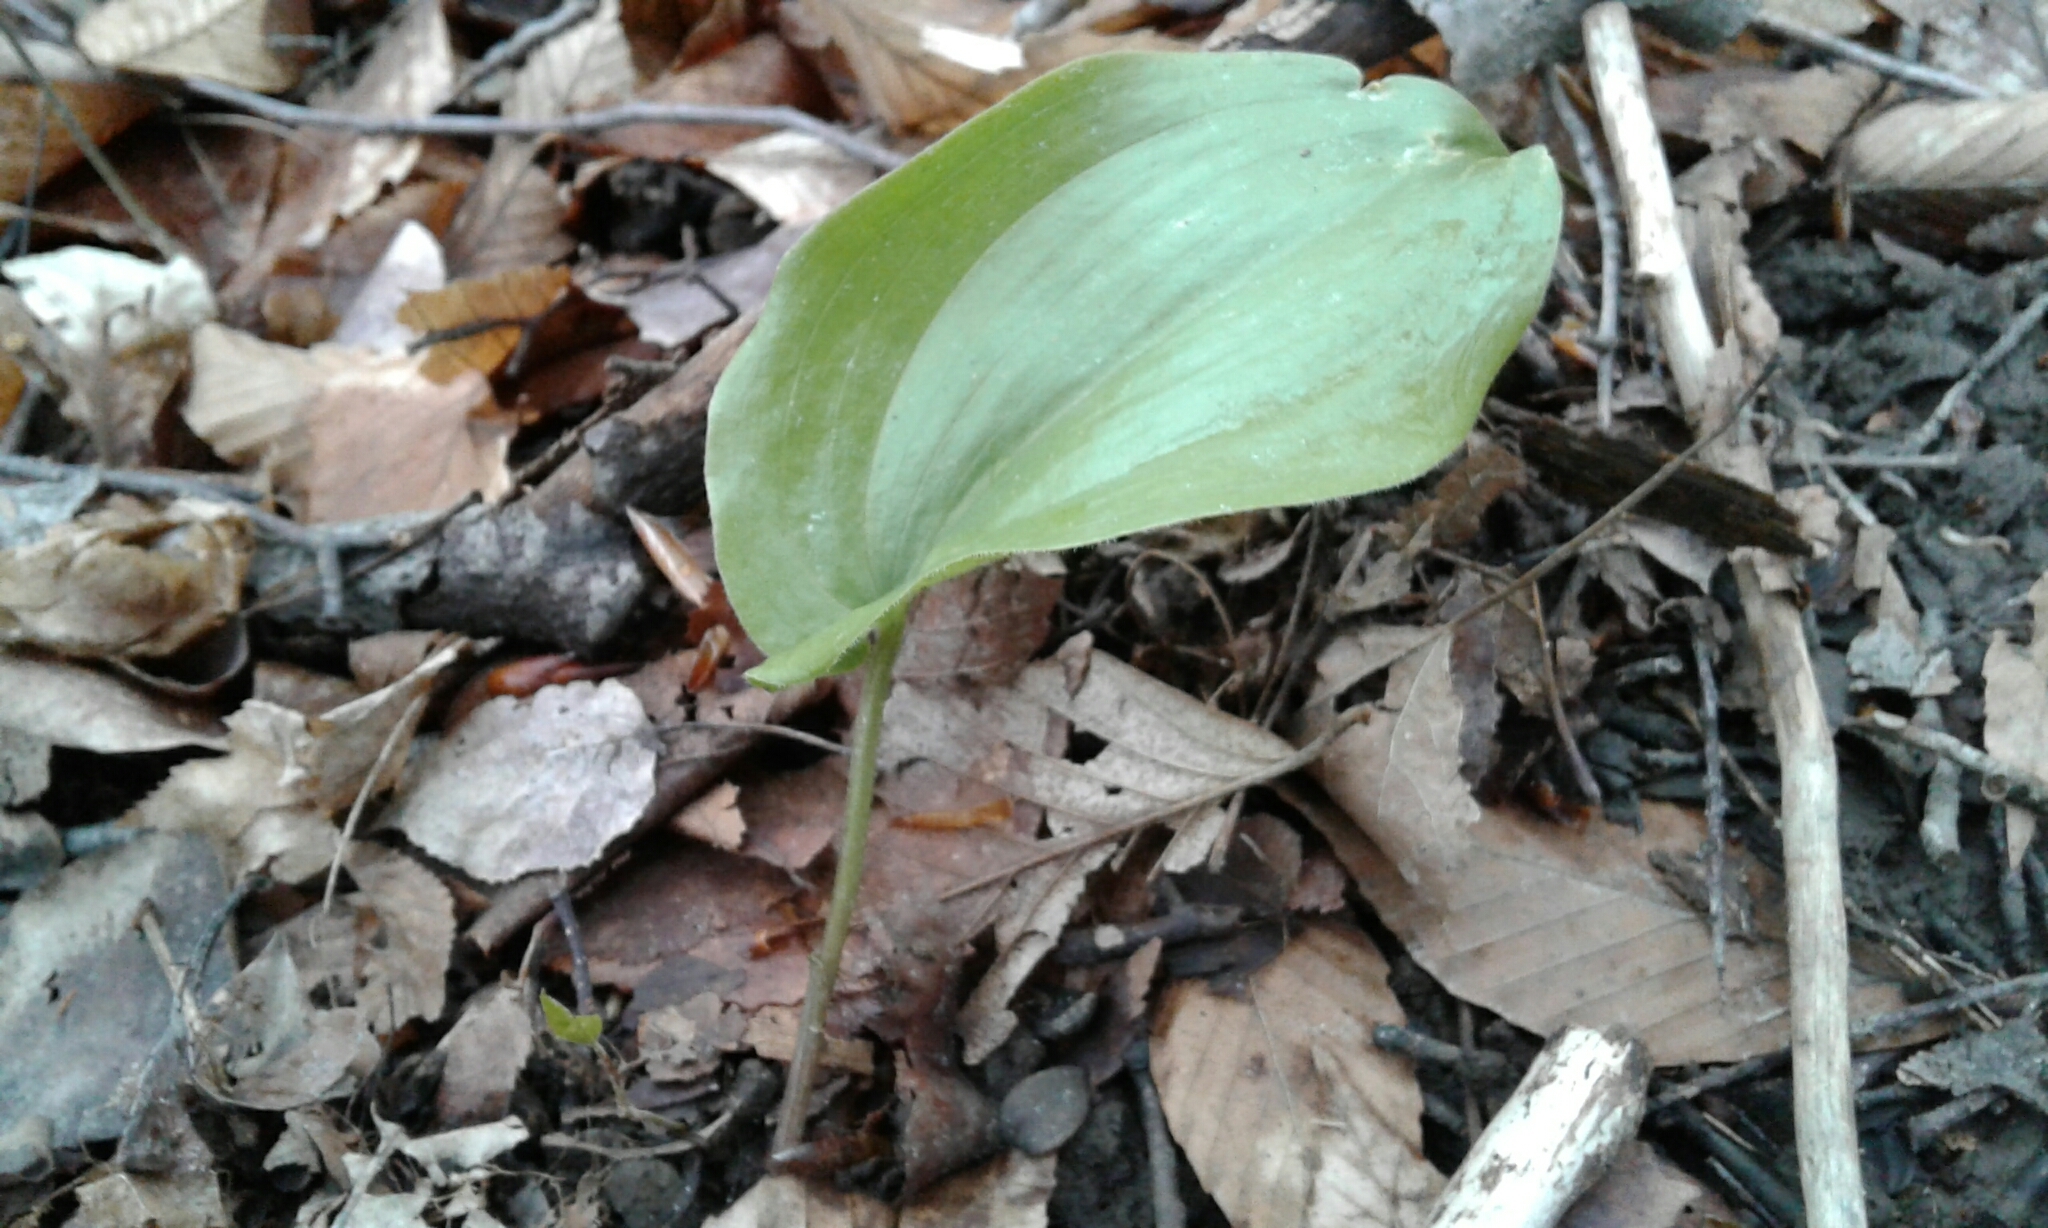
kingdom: Plantae
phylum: Tracheophyta
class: Liliopsida
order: Asparagales
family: Asparagaceae
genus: Maianthemum
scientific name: Maianthemum canadense
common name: False lily-of-the-valley
